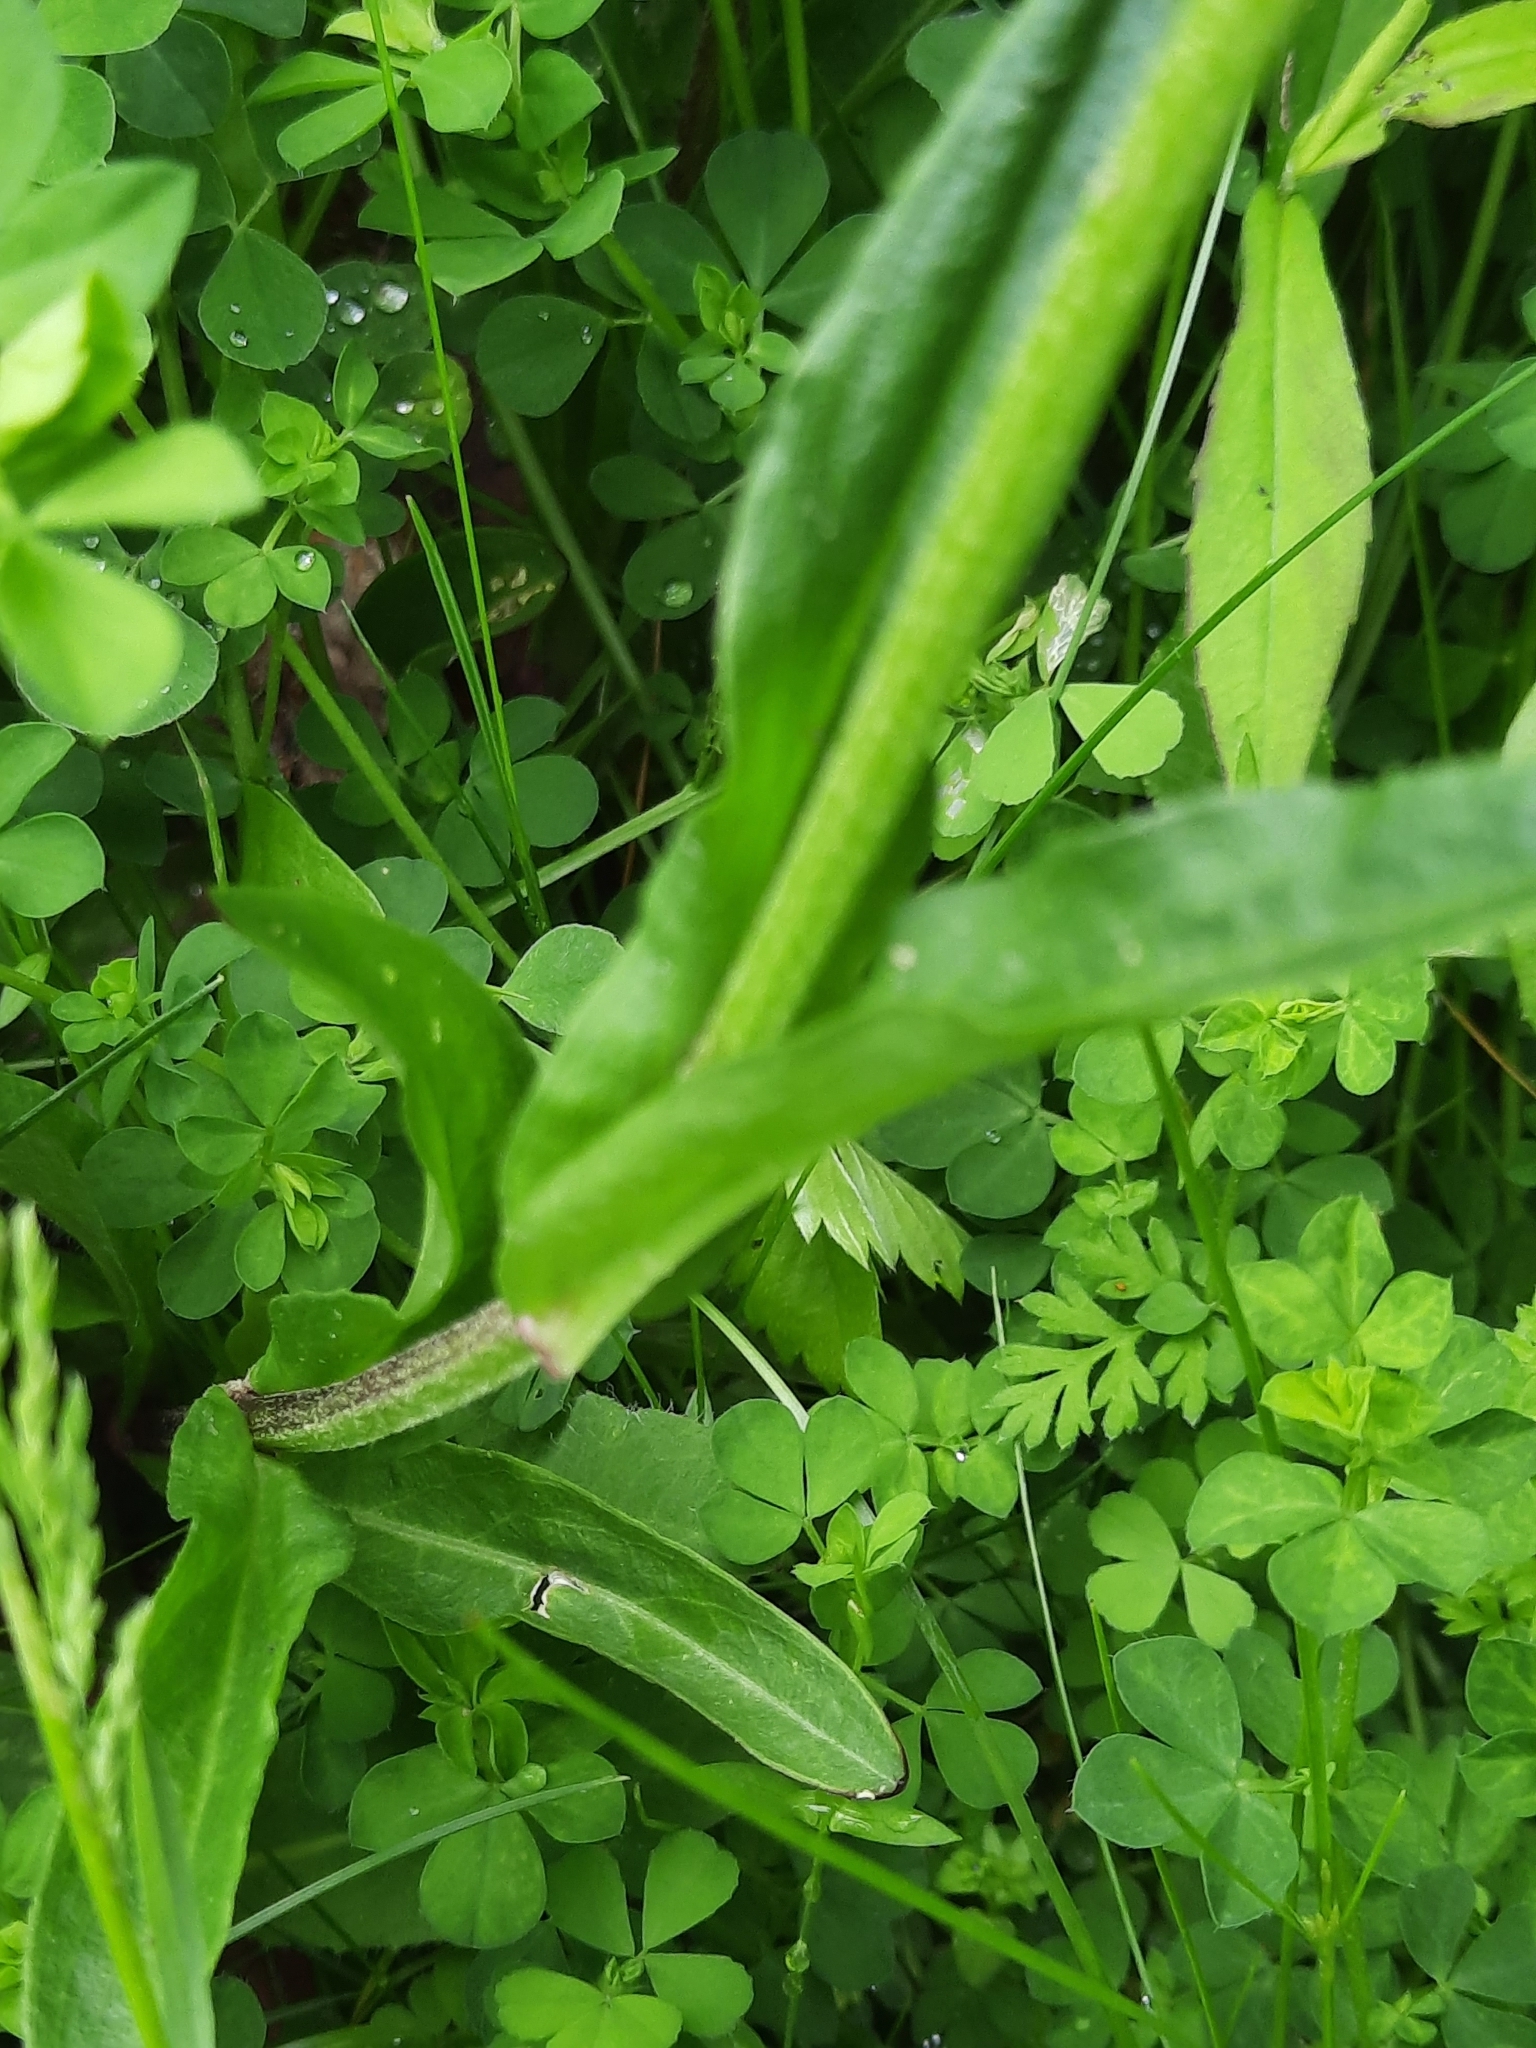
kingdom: Plantae
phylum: Tracheophyta
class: Magnoliopsida
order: Caryophyllales
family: Caryophyllaceae
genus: Silene
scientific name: Silene flos-cuculi
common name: Ragged-robin
